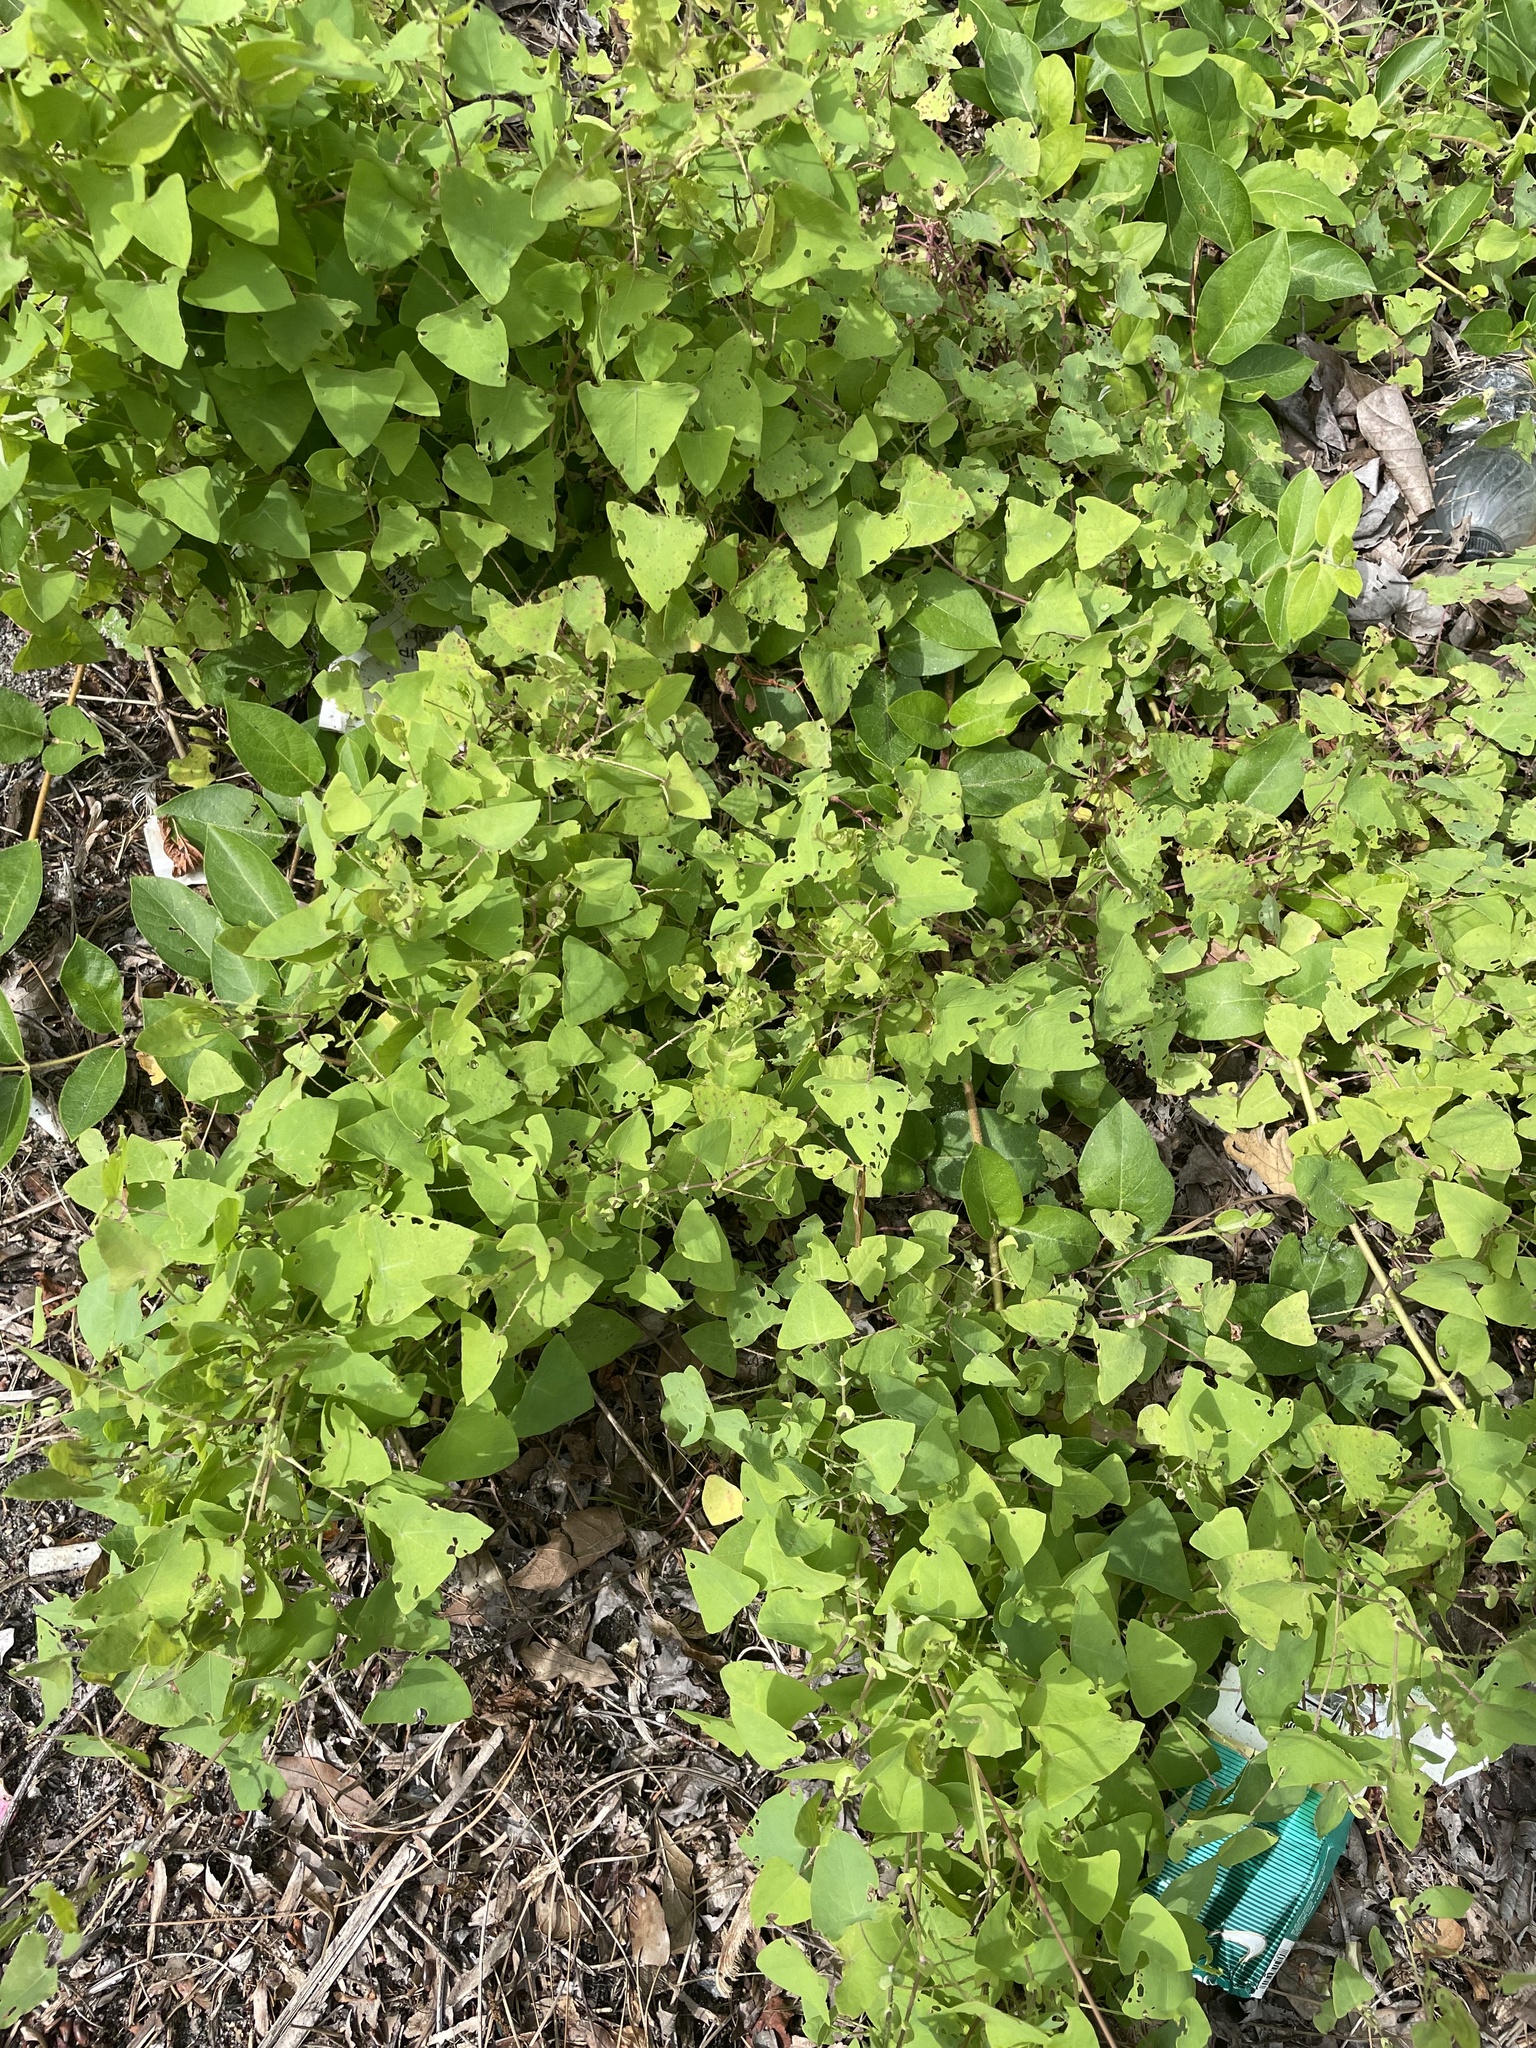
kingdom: Plantae
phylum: Tracheophyta
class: Magnoliopsida
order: Caryophyllales
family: Polygonaceae
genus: Persicaria
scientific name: Persicaria perfoliata
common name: Asiatic tearthumb
